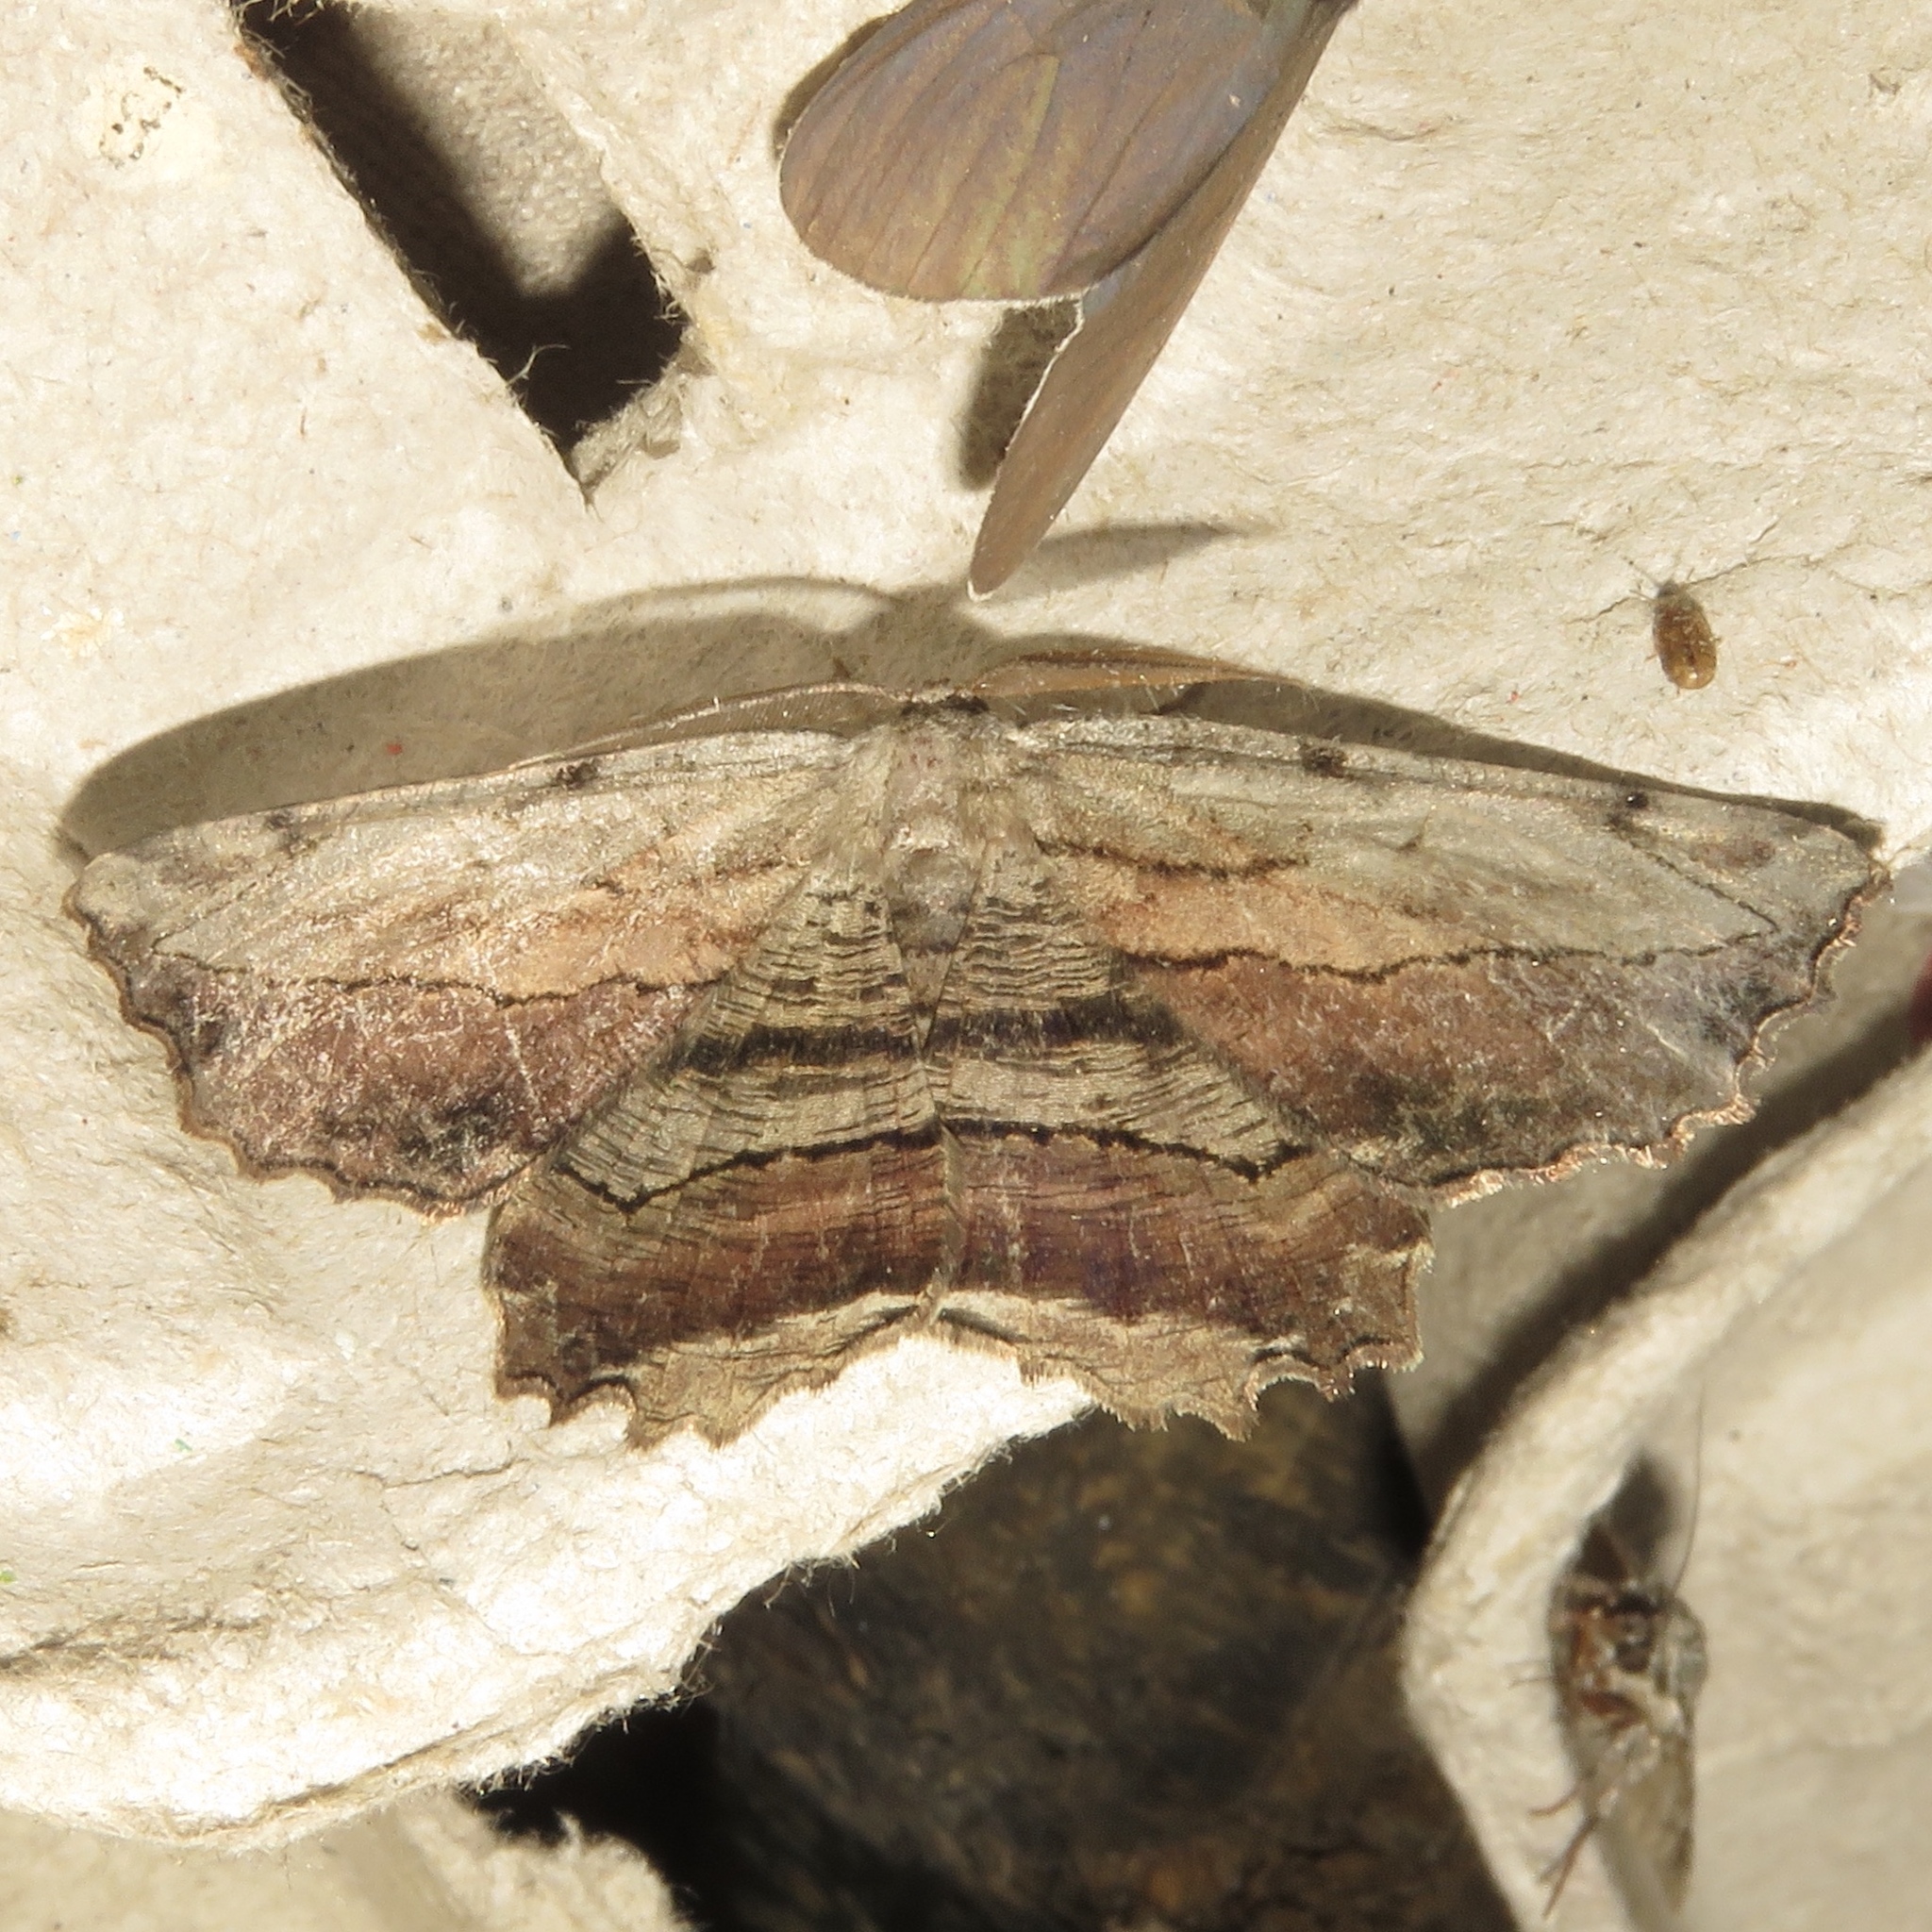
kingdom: Animalia
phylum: Arthropoda
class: Insecta
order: Lepidoptera
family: Geometridae
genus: Lytrosis
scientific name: Lytrosis unitaria
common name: Common lytrosis
